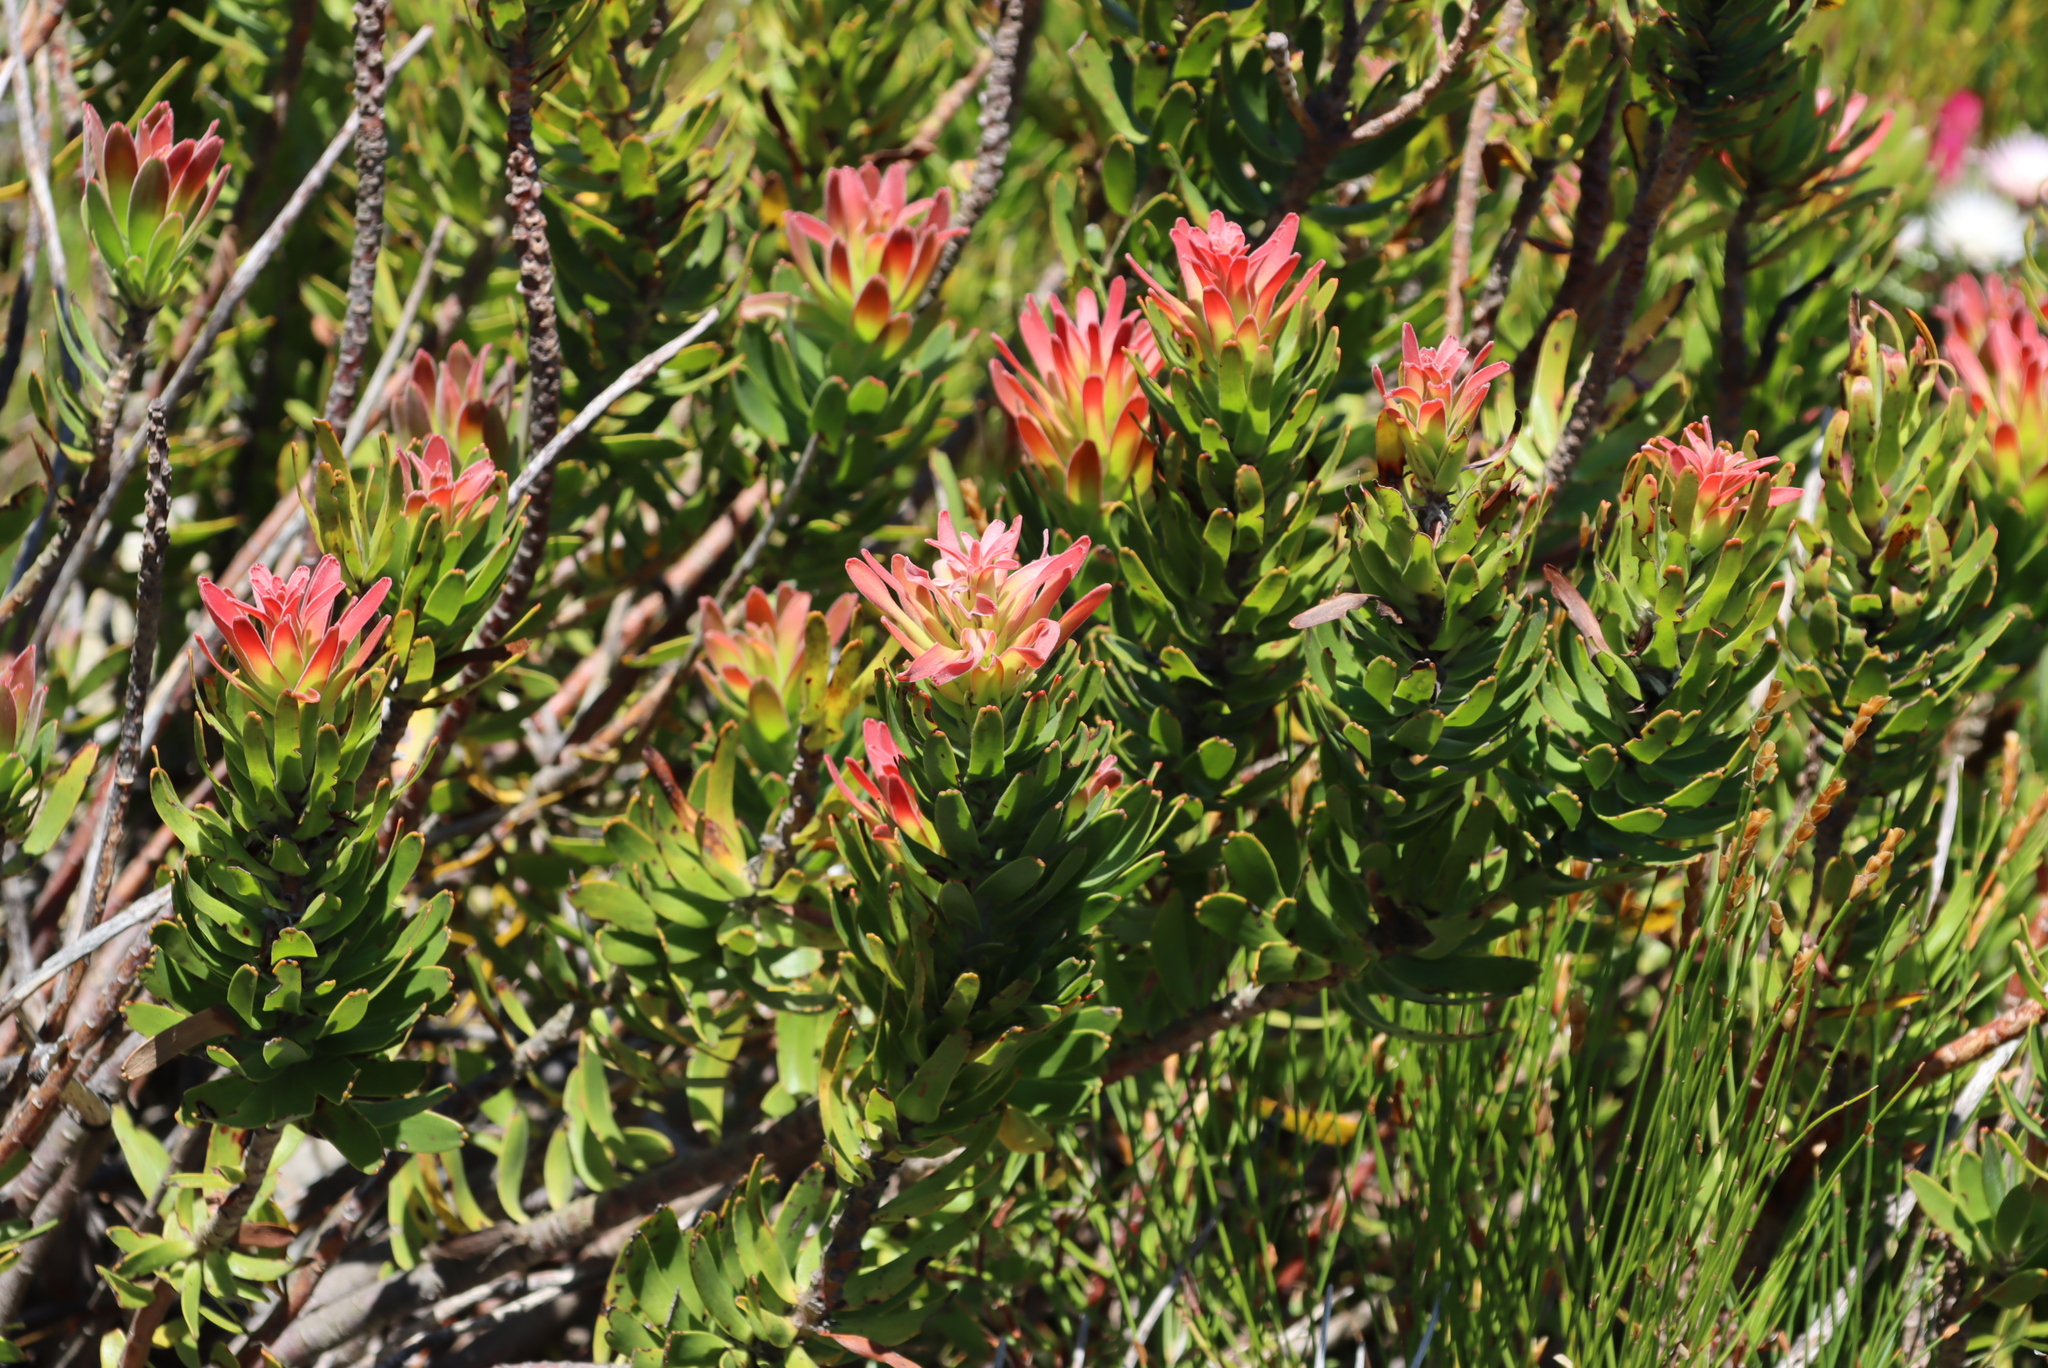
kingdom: Plantae
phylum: Tracheophyta
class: Magnoliopsida
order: Proteales
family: Proteaceae
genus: Mimetes
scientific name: Mimetes cucullatus
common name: Common pagoda
